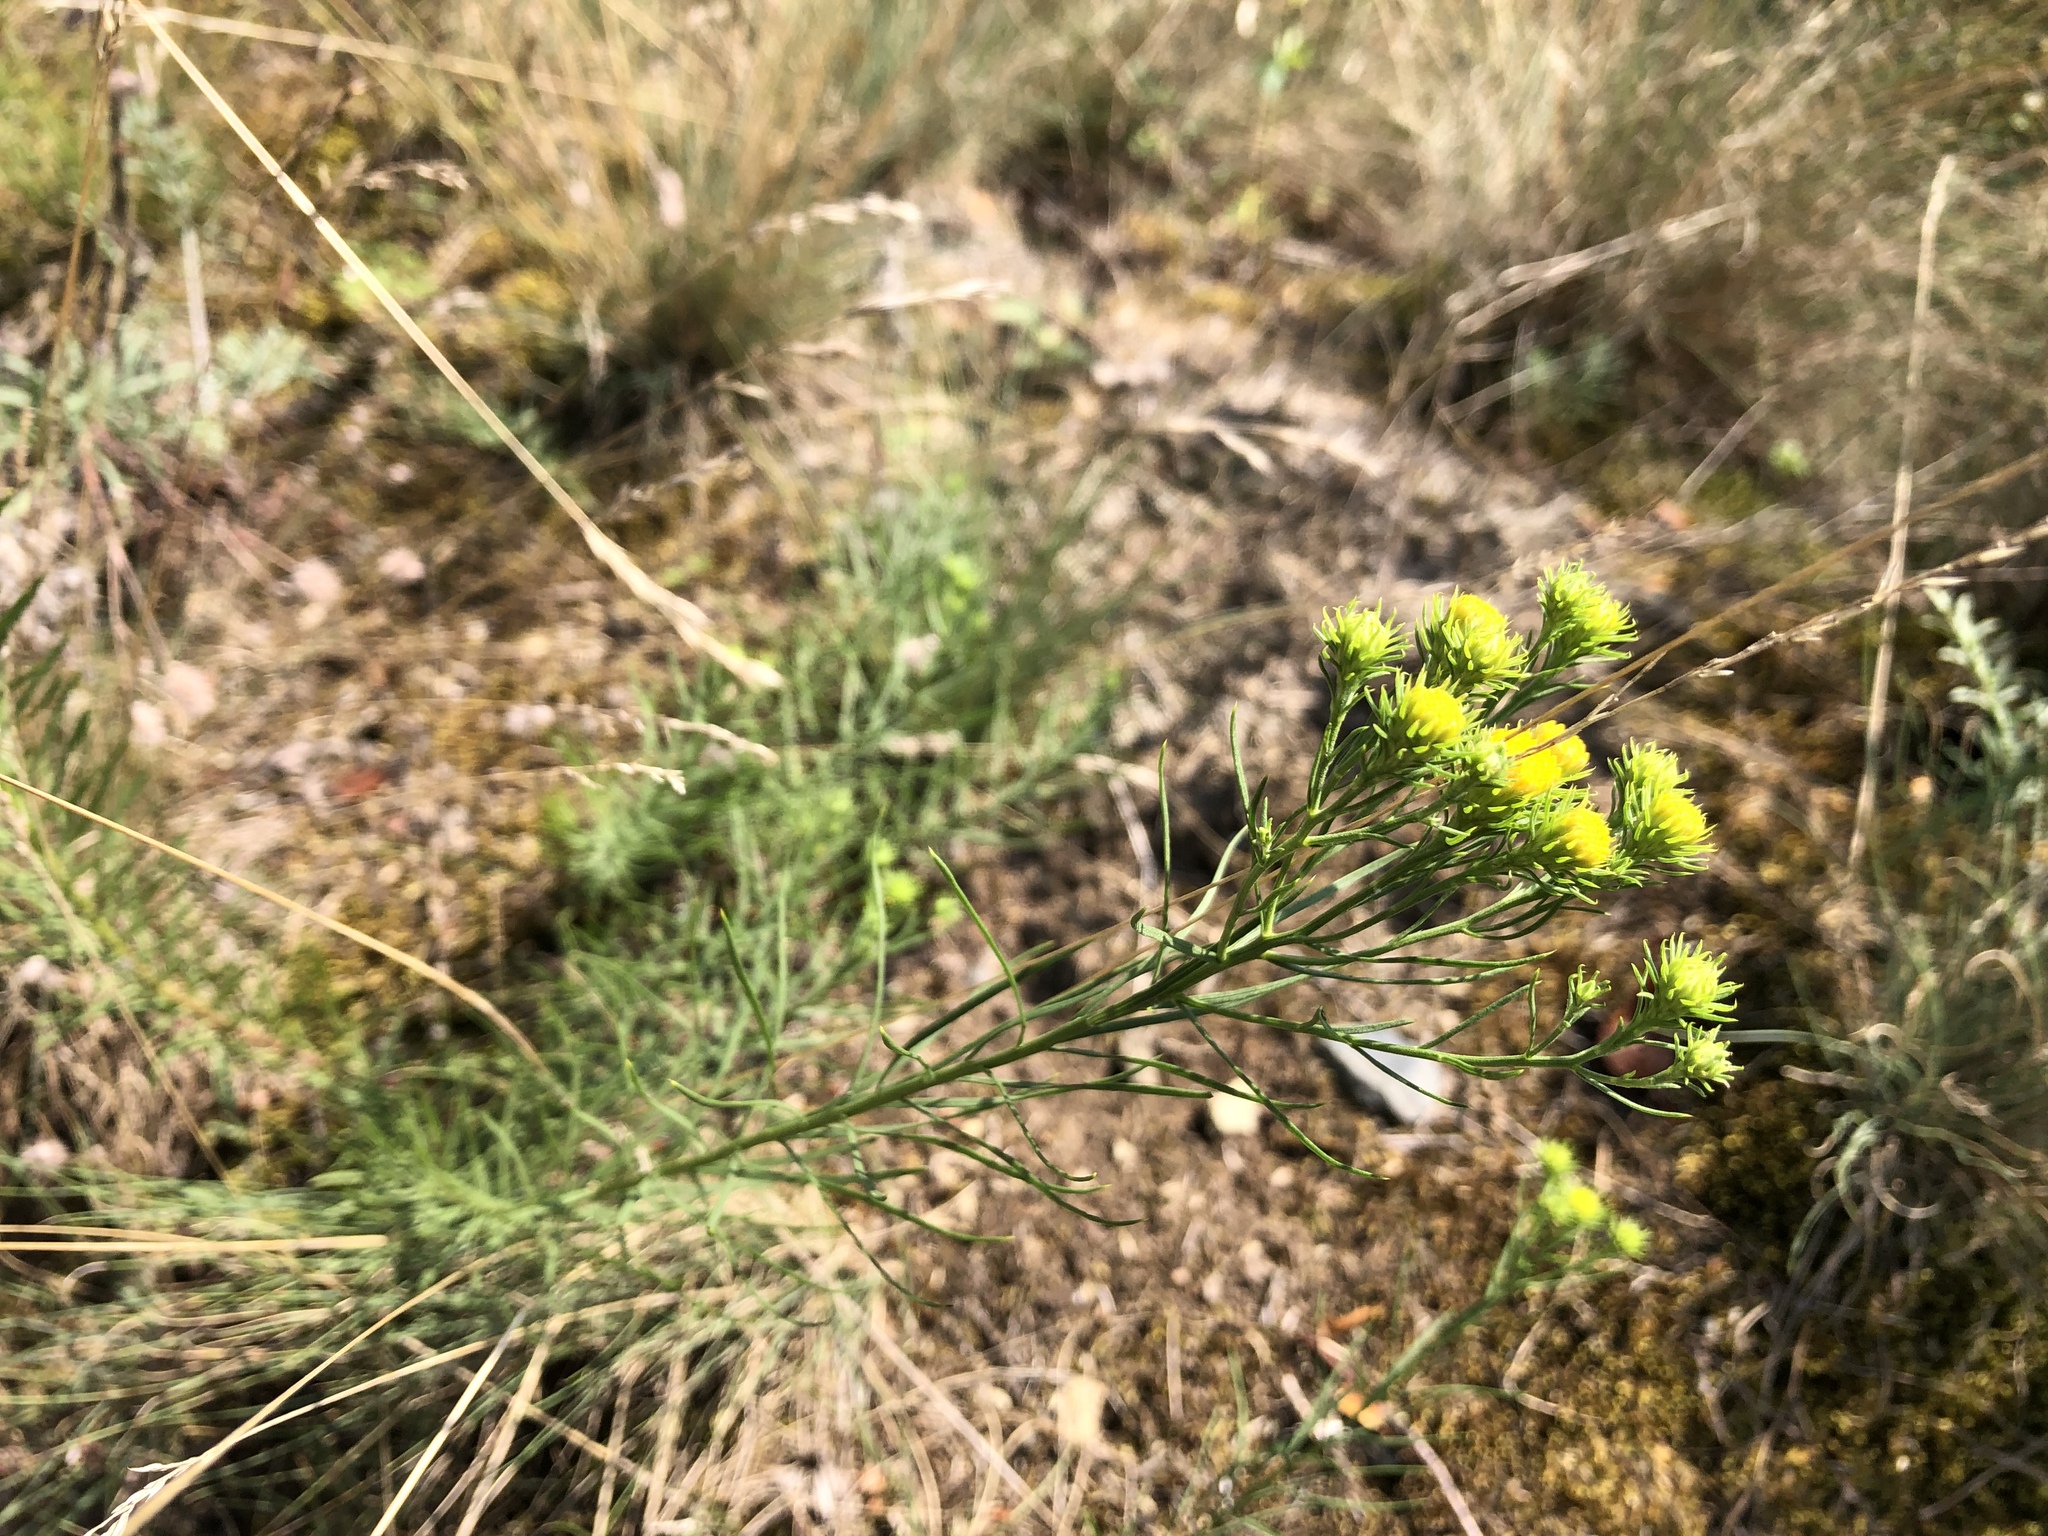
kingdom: Plantae
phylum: Tracheophyta
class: Magnoliopsida
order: Asterales
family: Asteraceae
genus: Galatella
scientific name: Galatella linosyris
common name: Goldilocks aster
